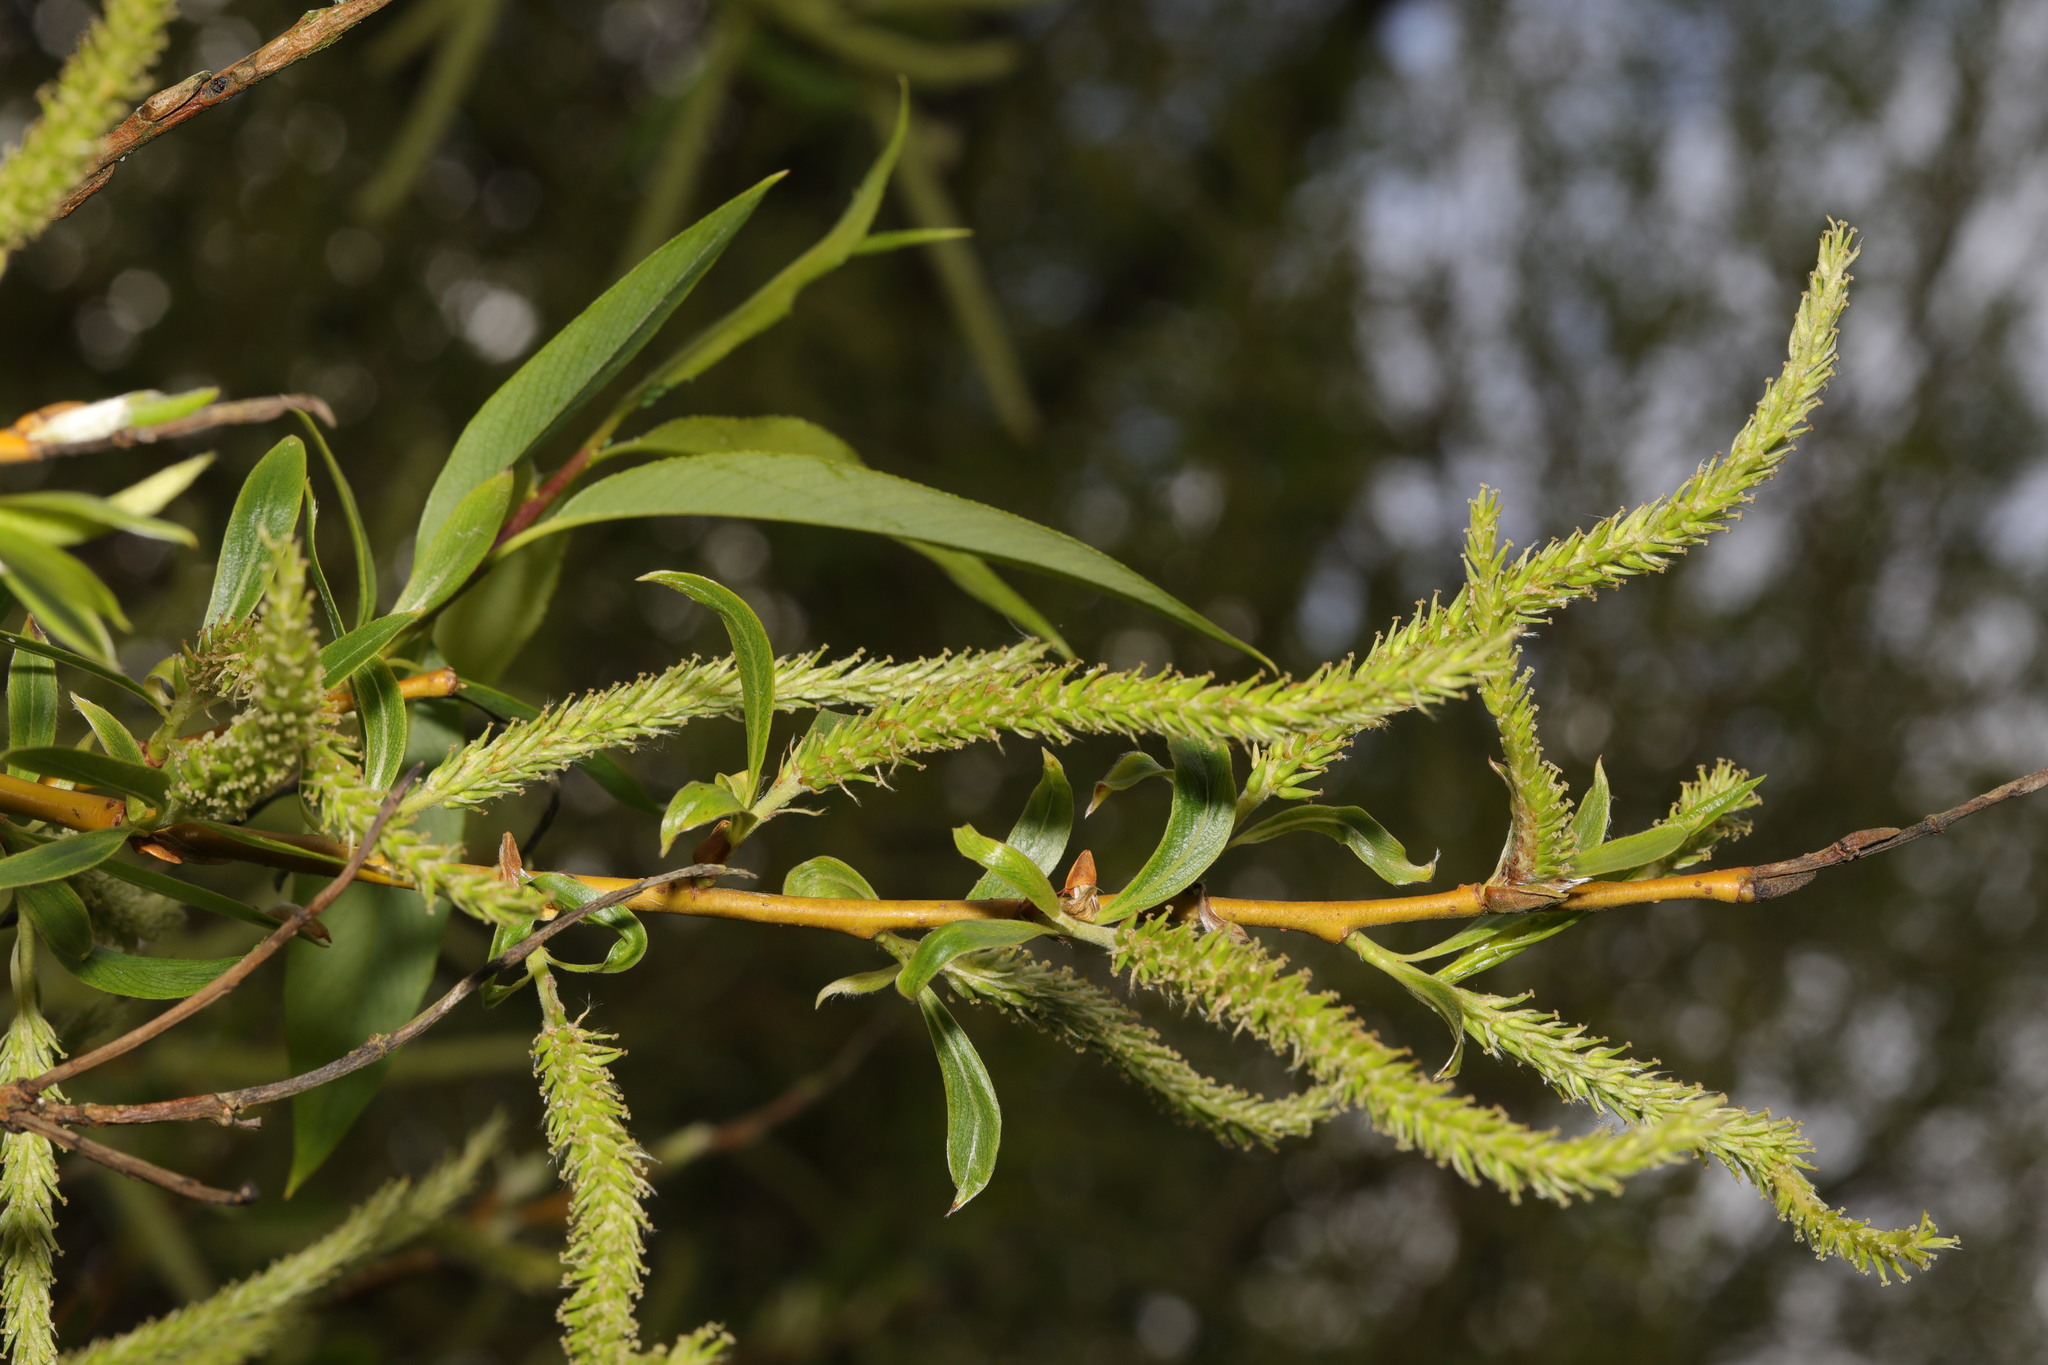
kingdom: Plantae
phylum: Tracheophyta
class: Magnoliopsida
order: Malpighiales
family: Salicaceae
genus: Salix
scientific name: Salix fragilis
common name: Crack willow
